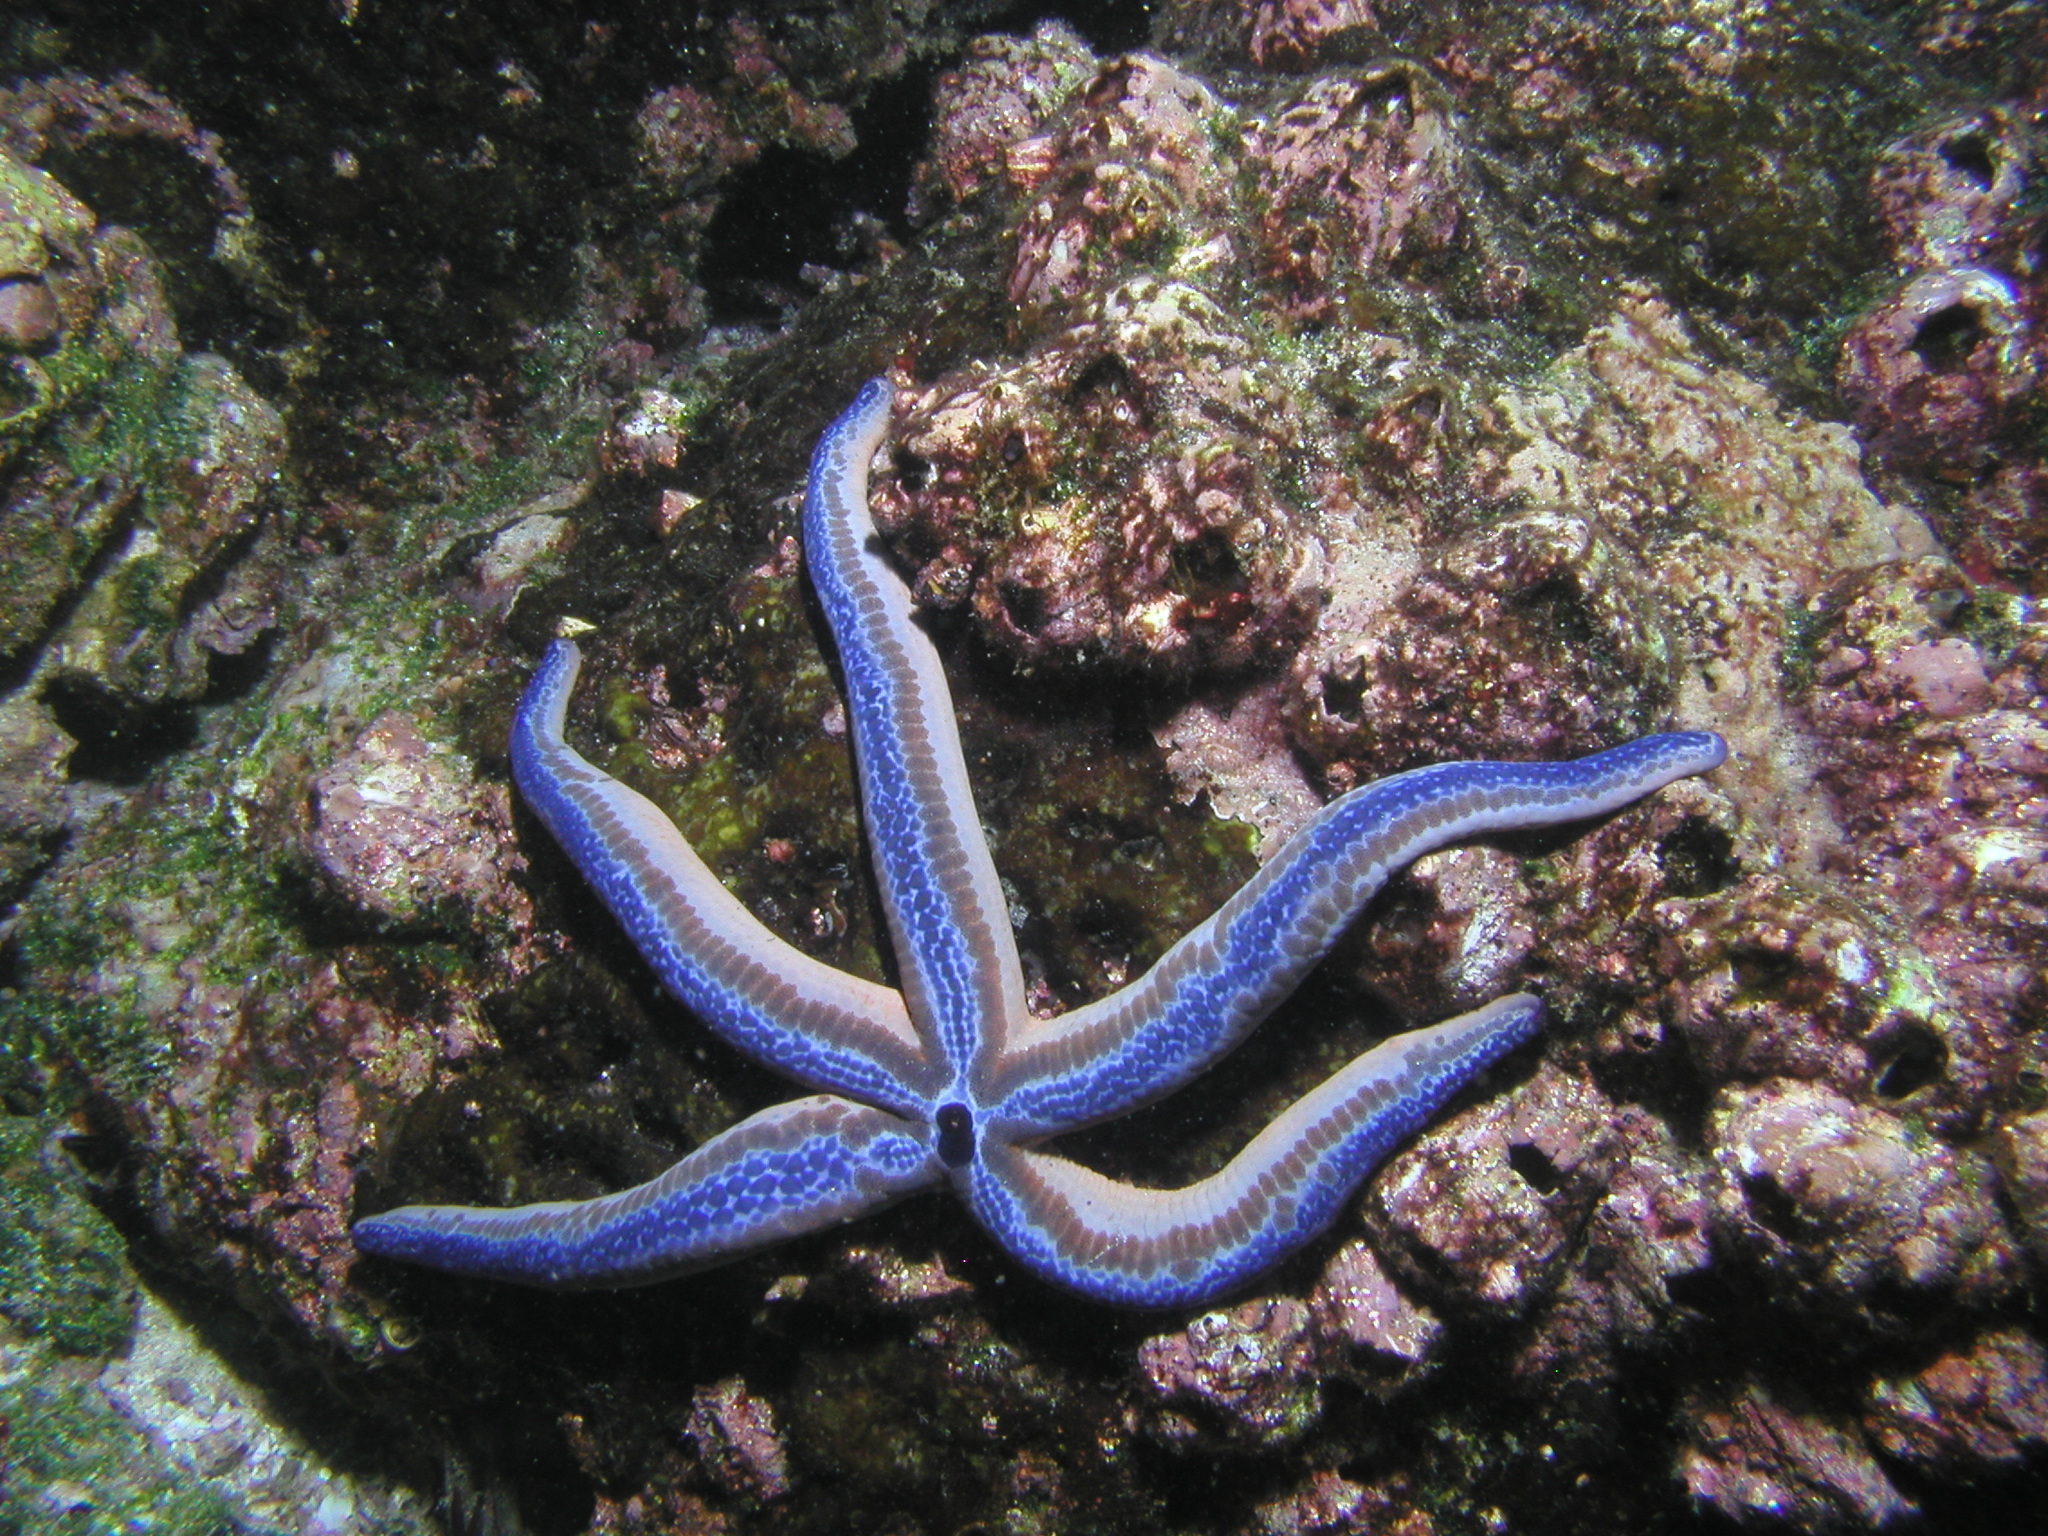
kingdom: Animalia
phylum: Echinodermata
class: Asteroidea
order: Valvatida
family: Ophidiasteridae
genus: Phataria
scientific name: Phataria unifascialis
